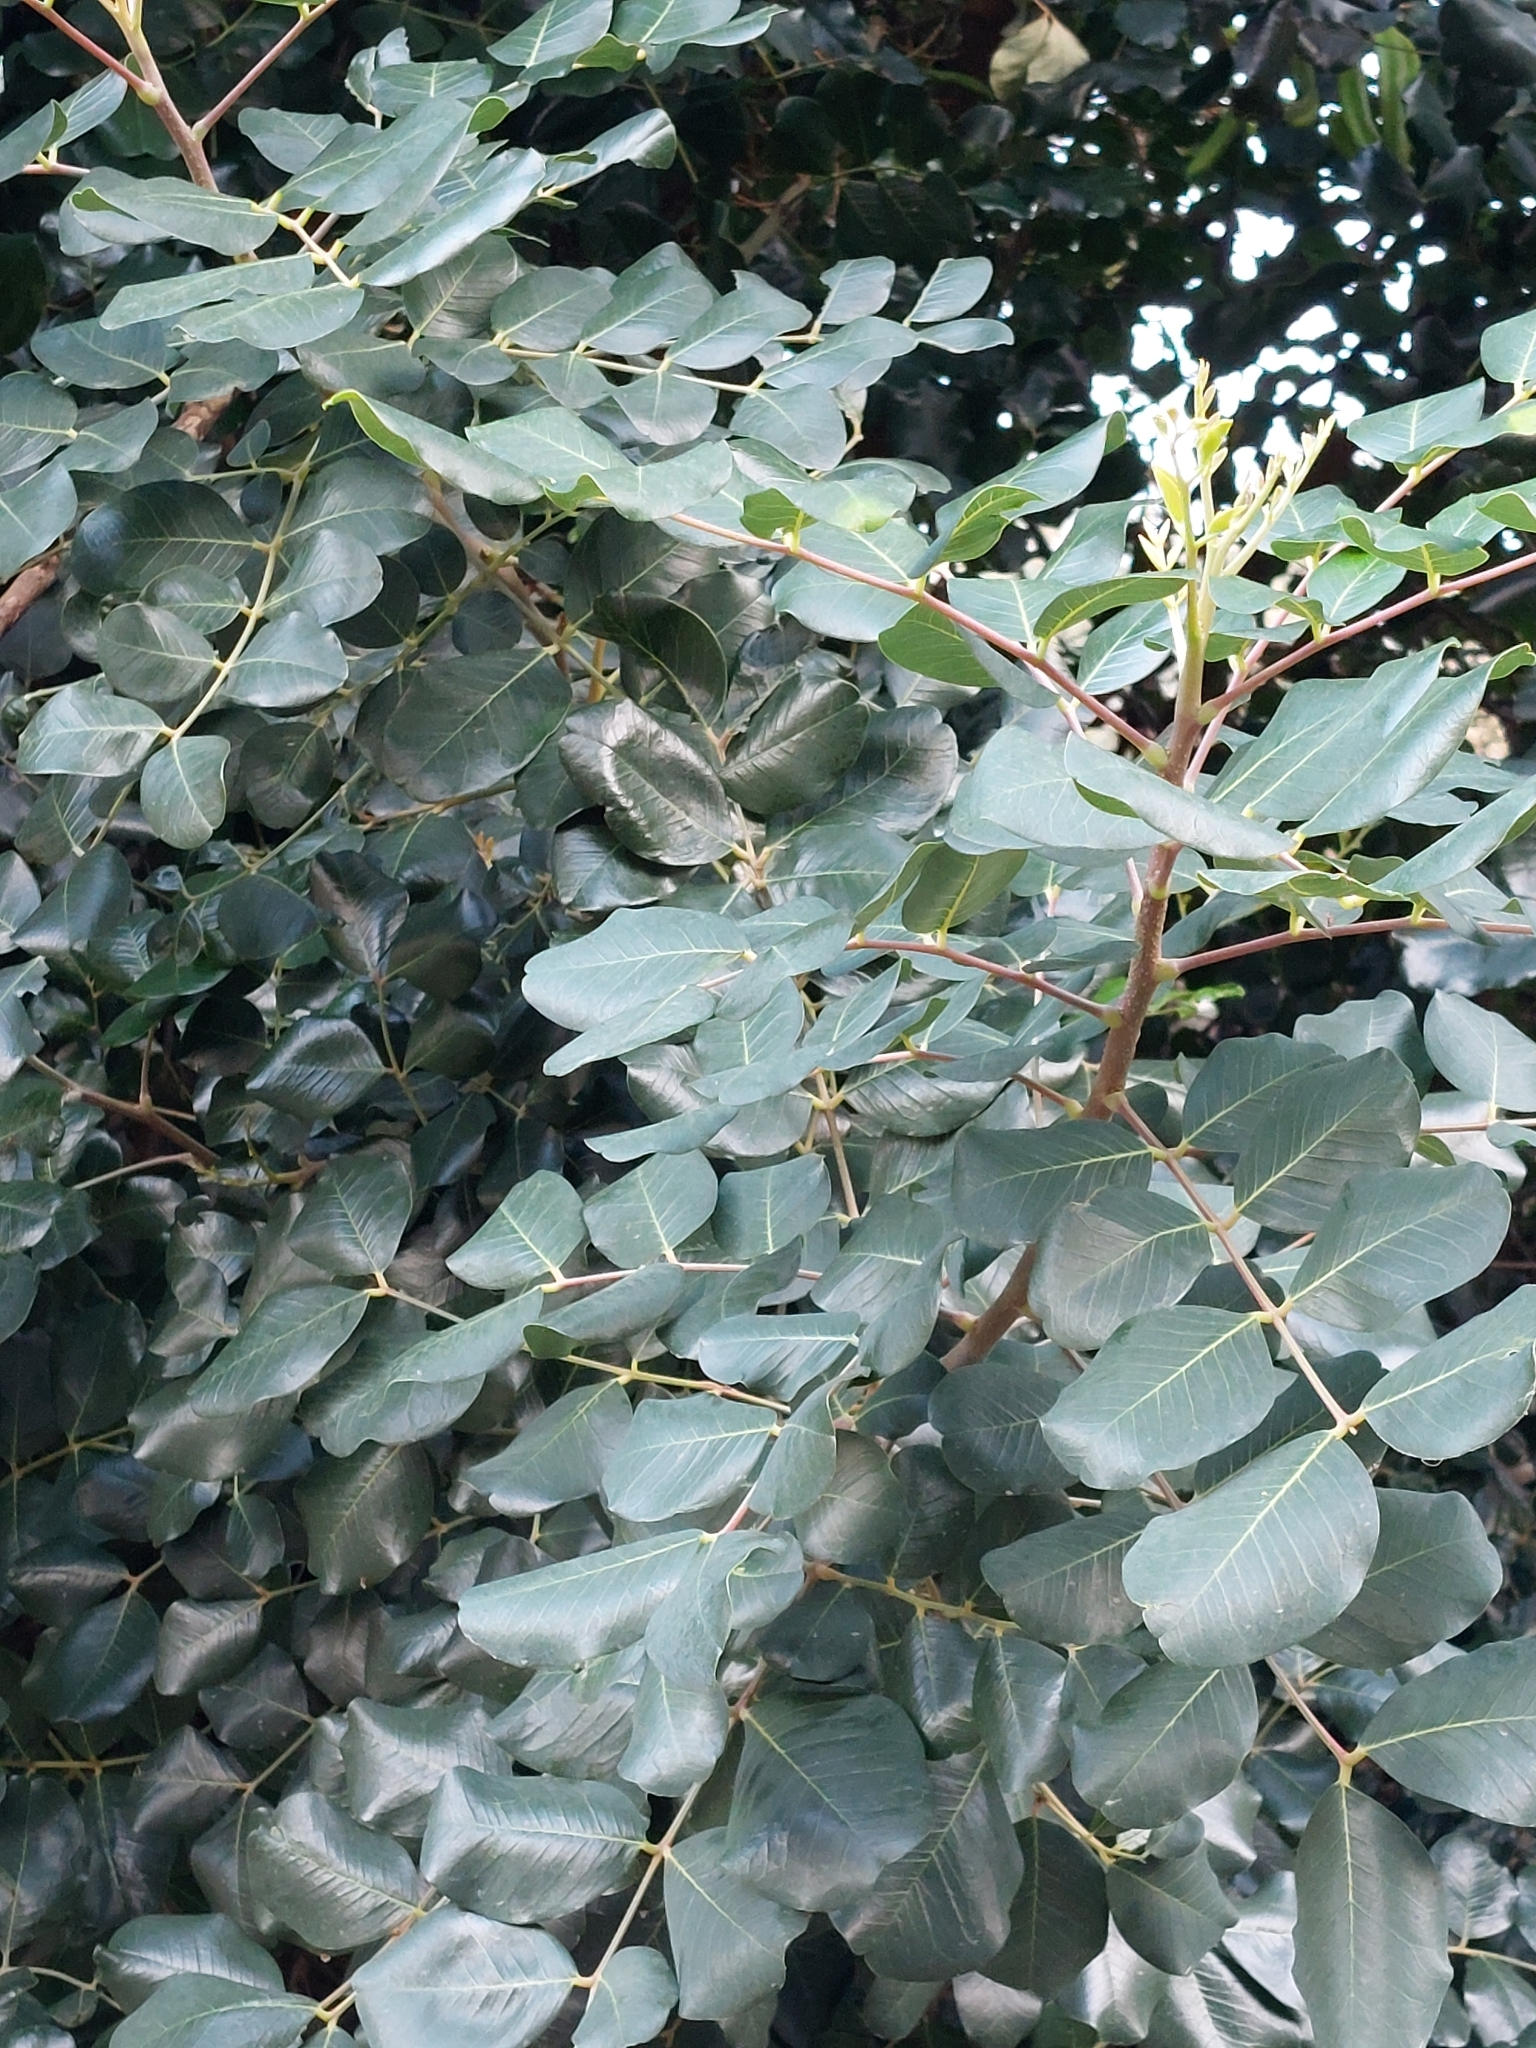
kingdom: Plantae
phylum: Tracheophyta
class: Magnoliopsida
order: Fabales
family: Fabaceae
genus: Ceratonia
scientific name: Ceratonia siliqua
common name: Carob
